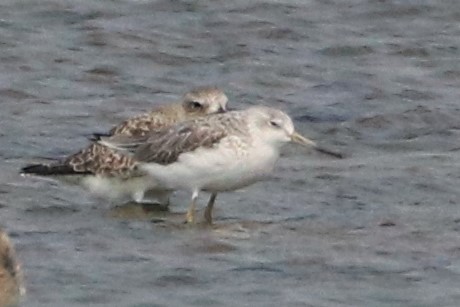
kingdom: Animalia
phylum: Chordata
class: Aves
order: Charadriiformes
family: Scolopacidae
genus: Tringa
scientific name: Tringa guttifer
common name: Nordmann's greenshank
